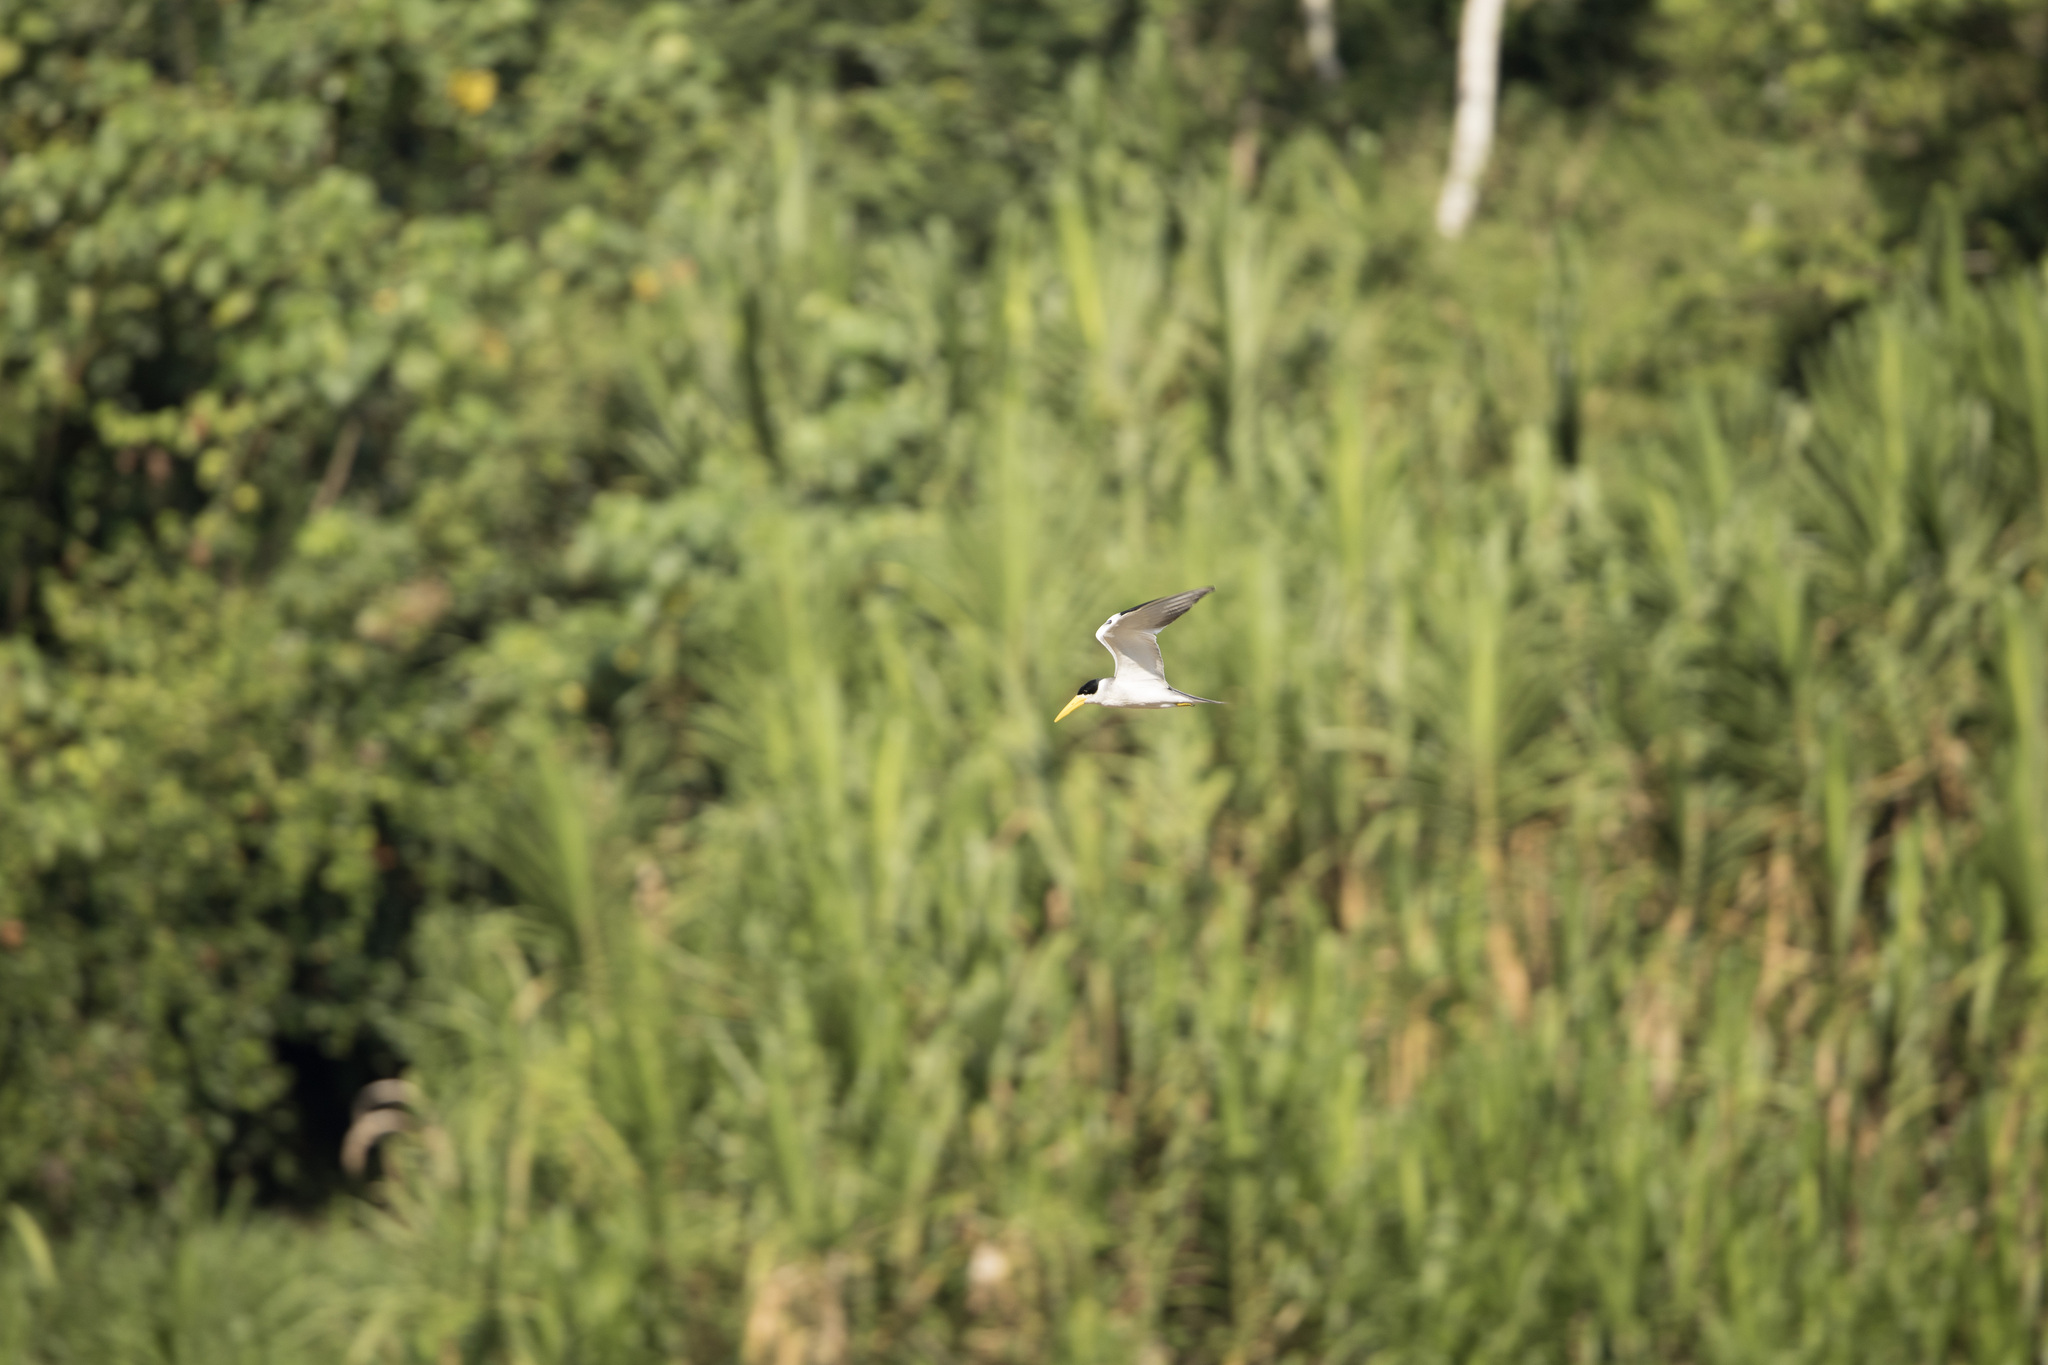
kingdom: Animalia
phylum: Chordata
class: Aves
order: Charadriiformes
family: Laridae
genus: Phaetusa
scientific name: Phaetusa simplex
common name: Large-billed tern
